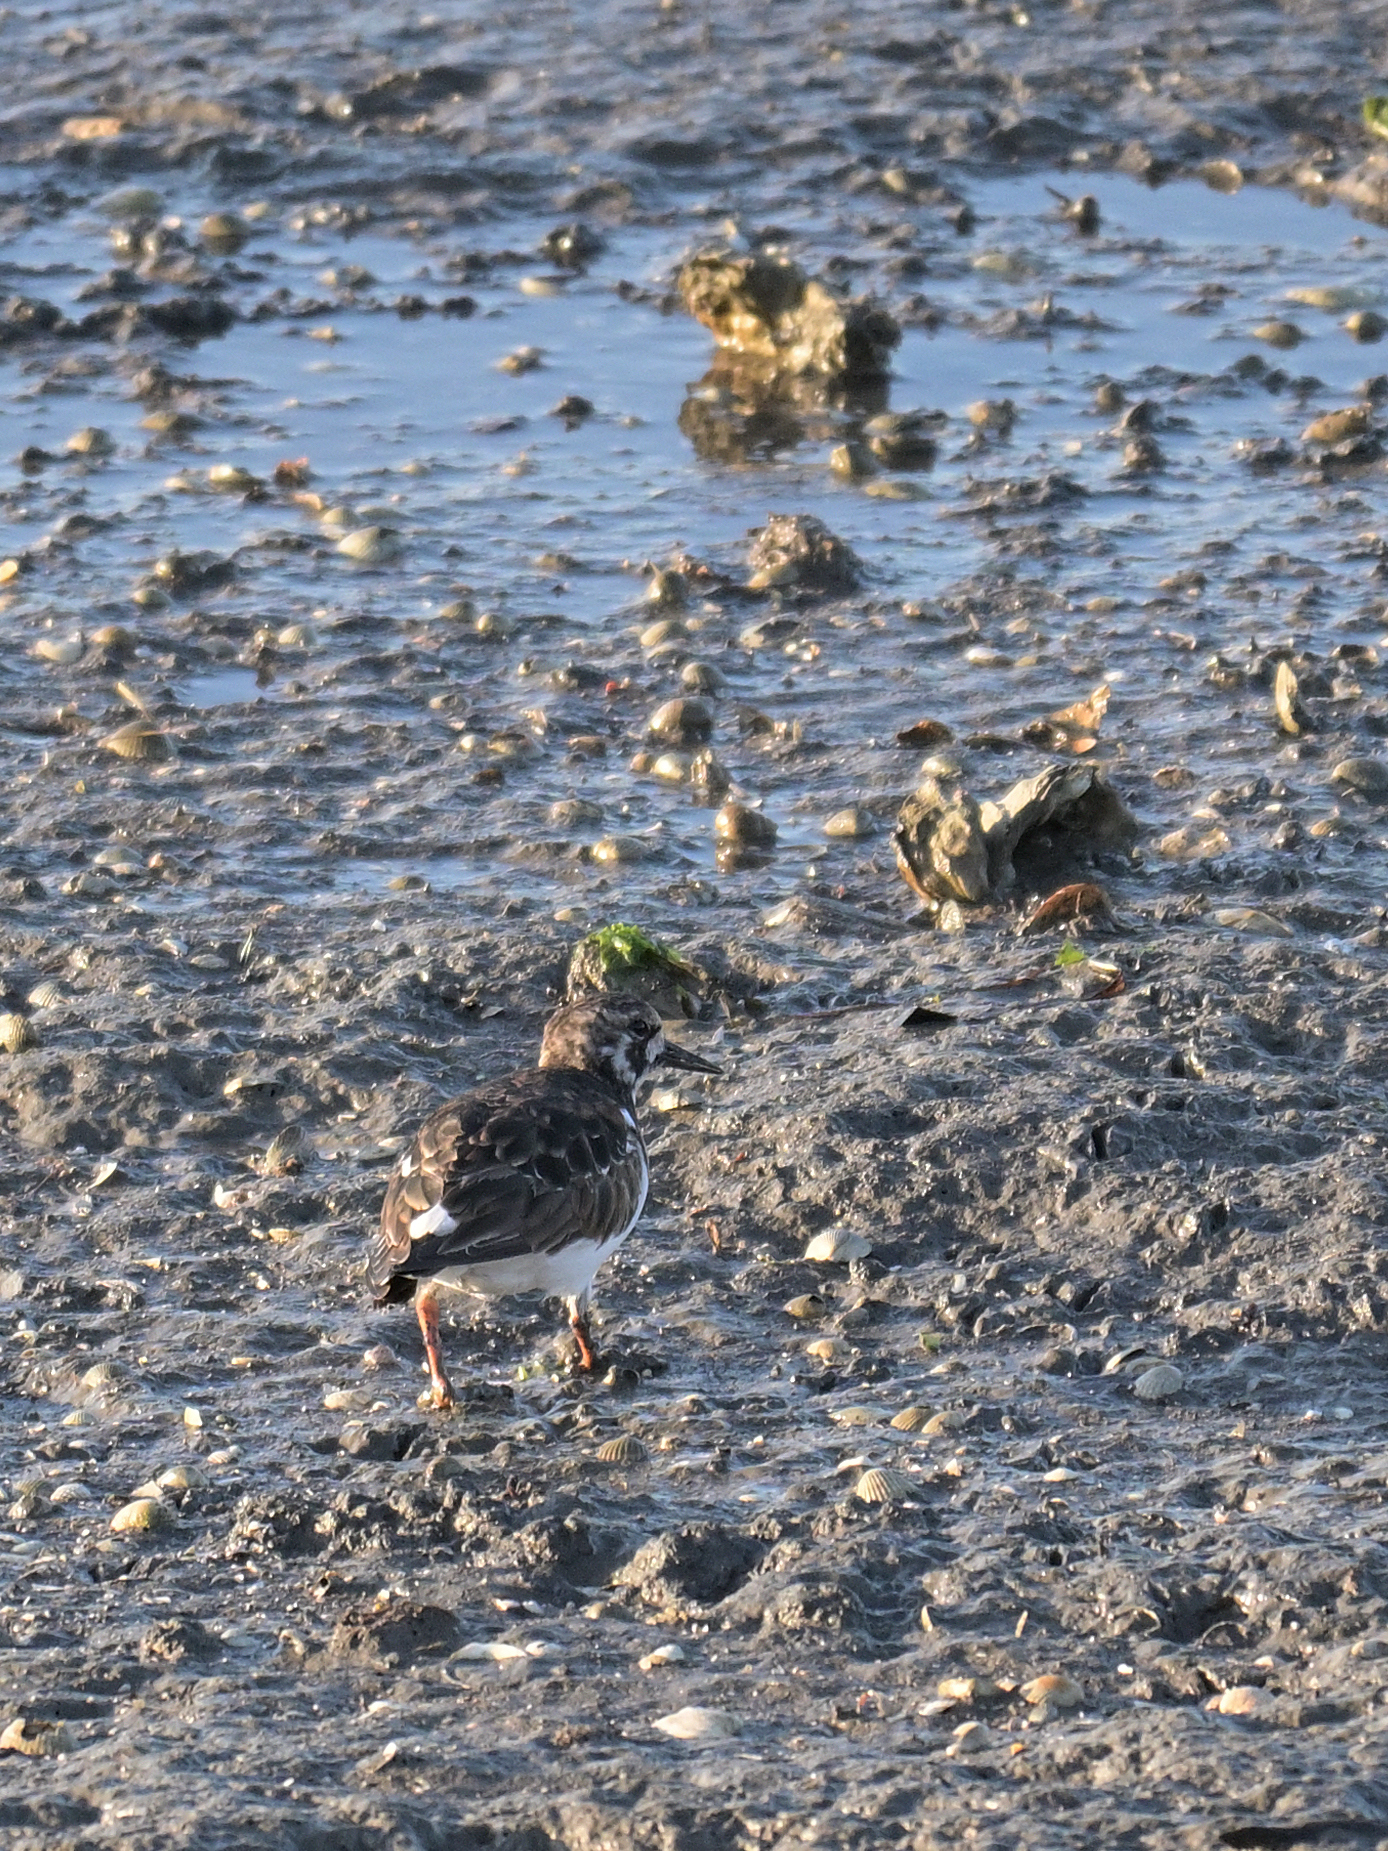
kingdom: Animalia
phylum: Chordata
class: Aves
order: Charadriiformes
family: Scolopacidae
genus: Arenaria
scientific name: Arenaria interpres
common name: Ruddy turnstone
